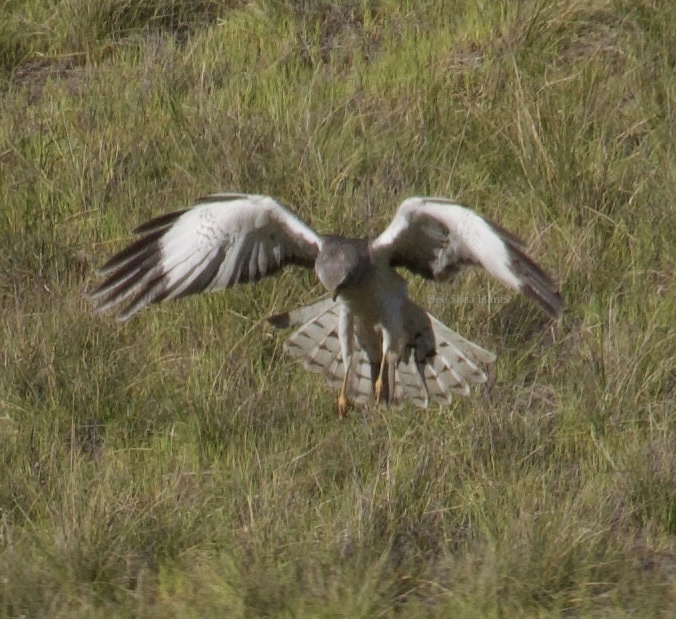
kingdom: Animalia
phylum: Chordata
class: Aves
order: Accipitriformes
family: Accipitridae
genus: Circus
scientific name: Circus cyaneus
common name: Hen harrier
